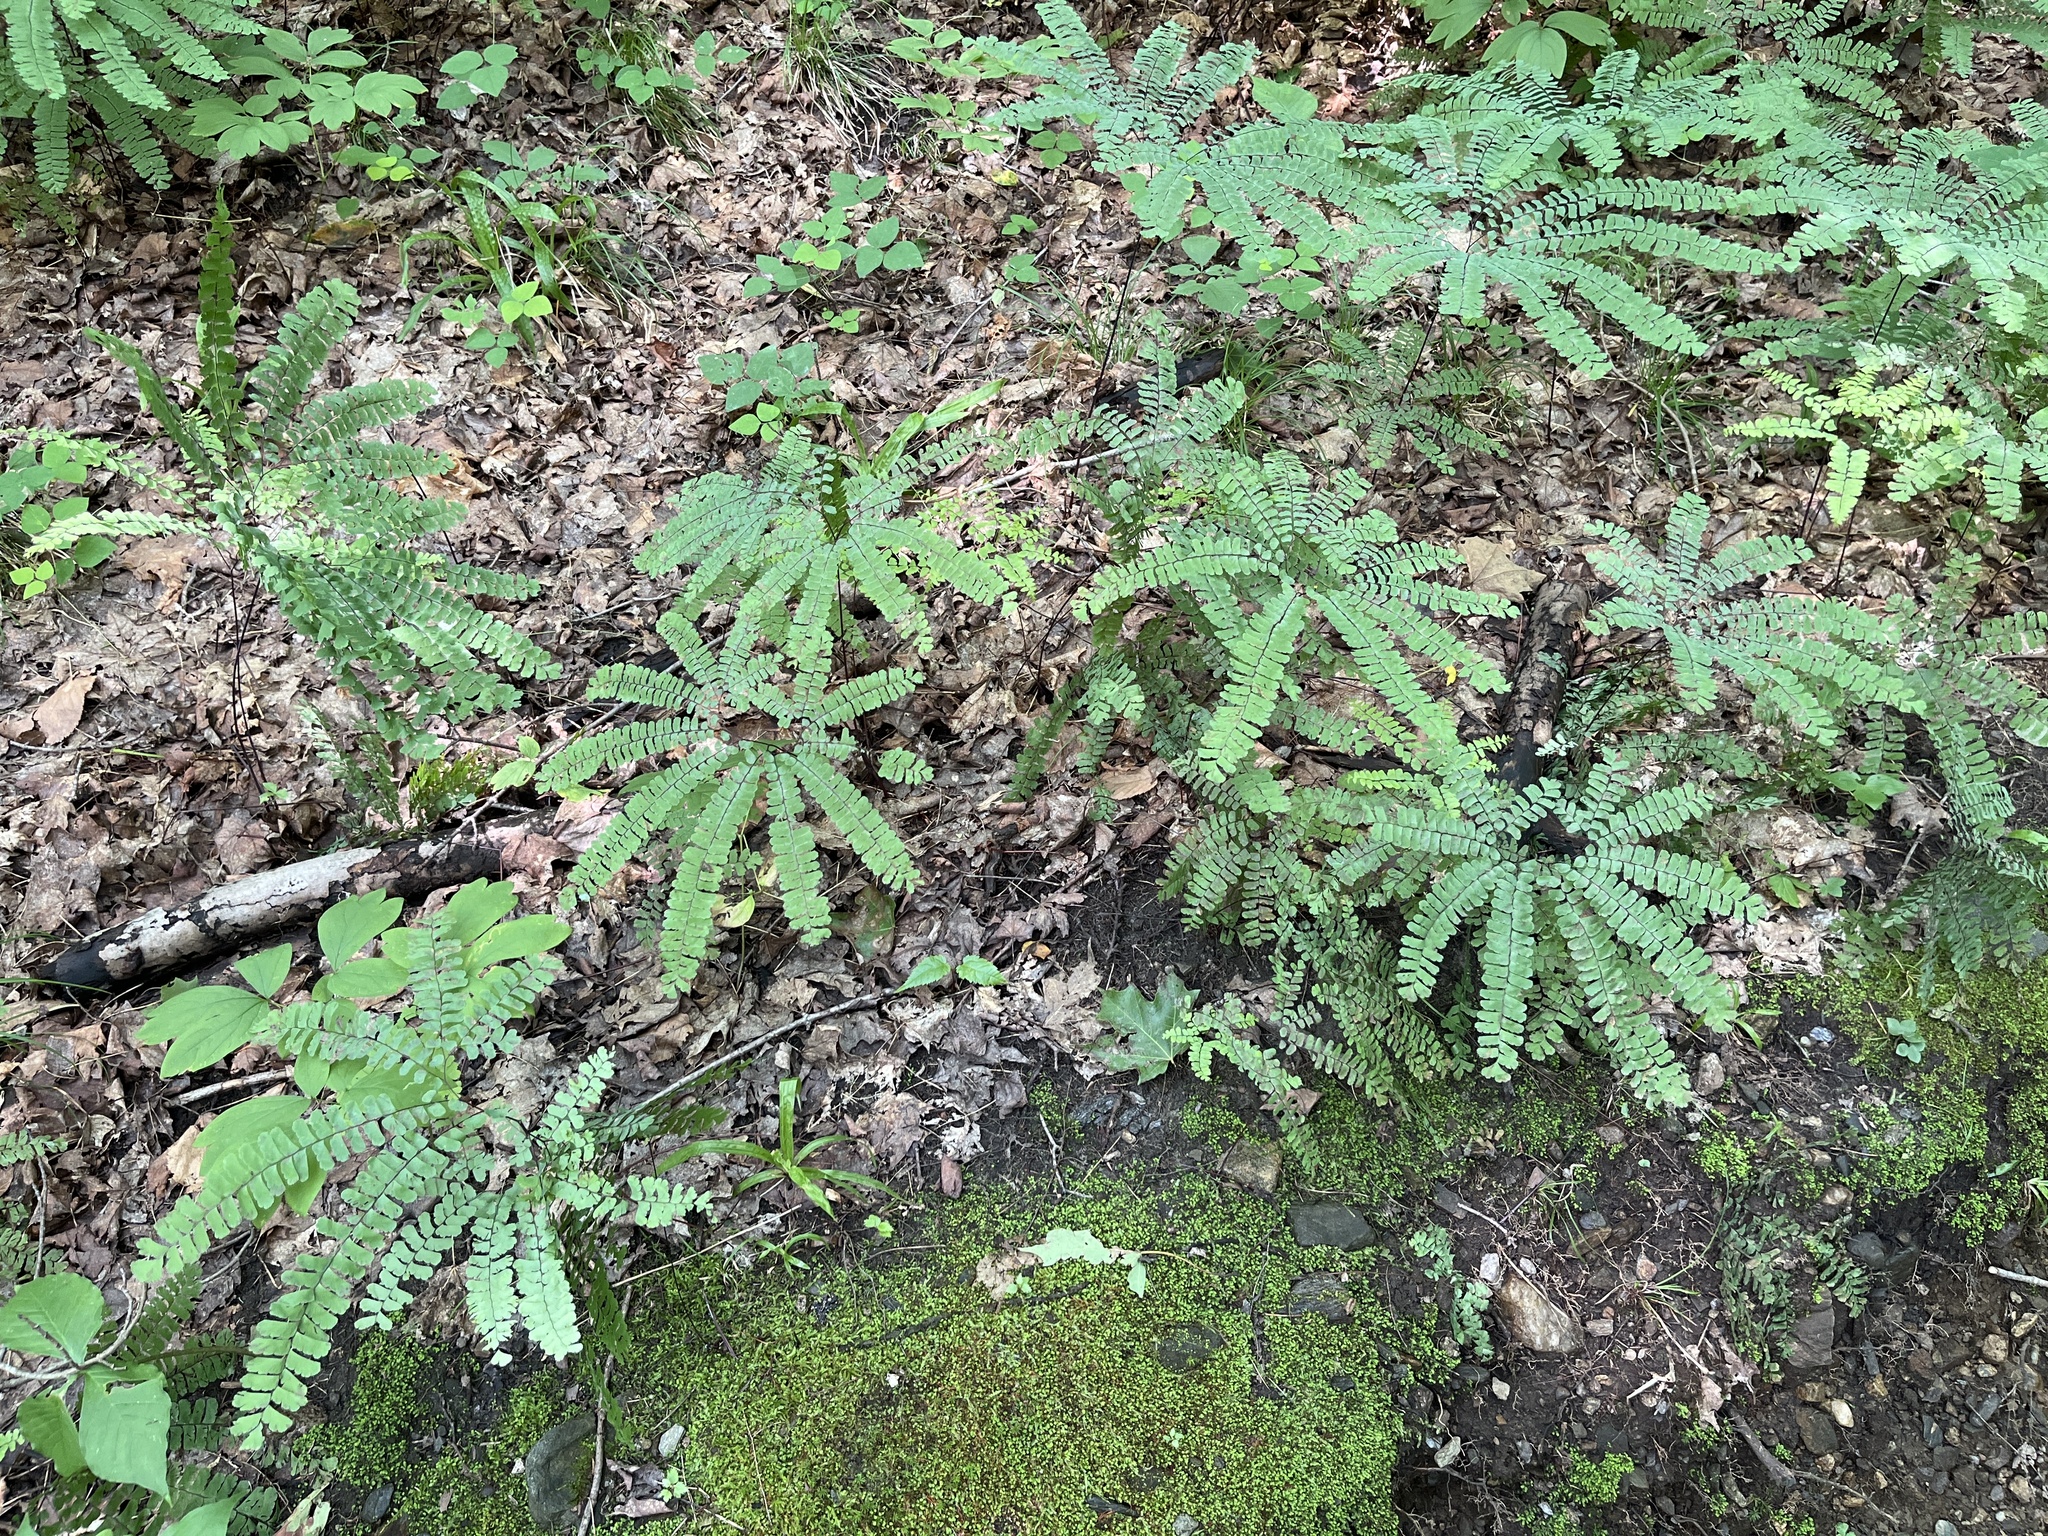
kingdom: Plantae
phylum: Tracheophyta
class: Polypodiopsida
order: Polypodiales
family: Pteridaceae
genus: Adiantum
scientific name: Adiantum pedatum
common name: Five-finger fern
